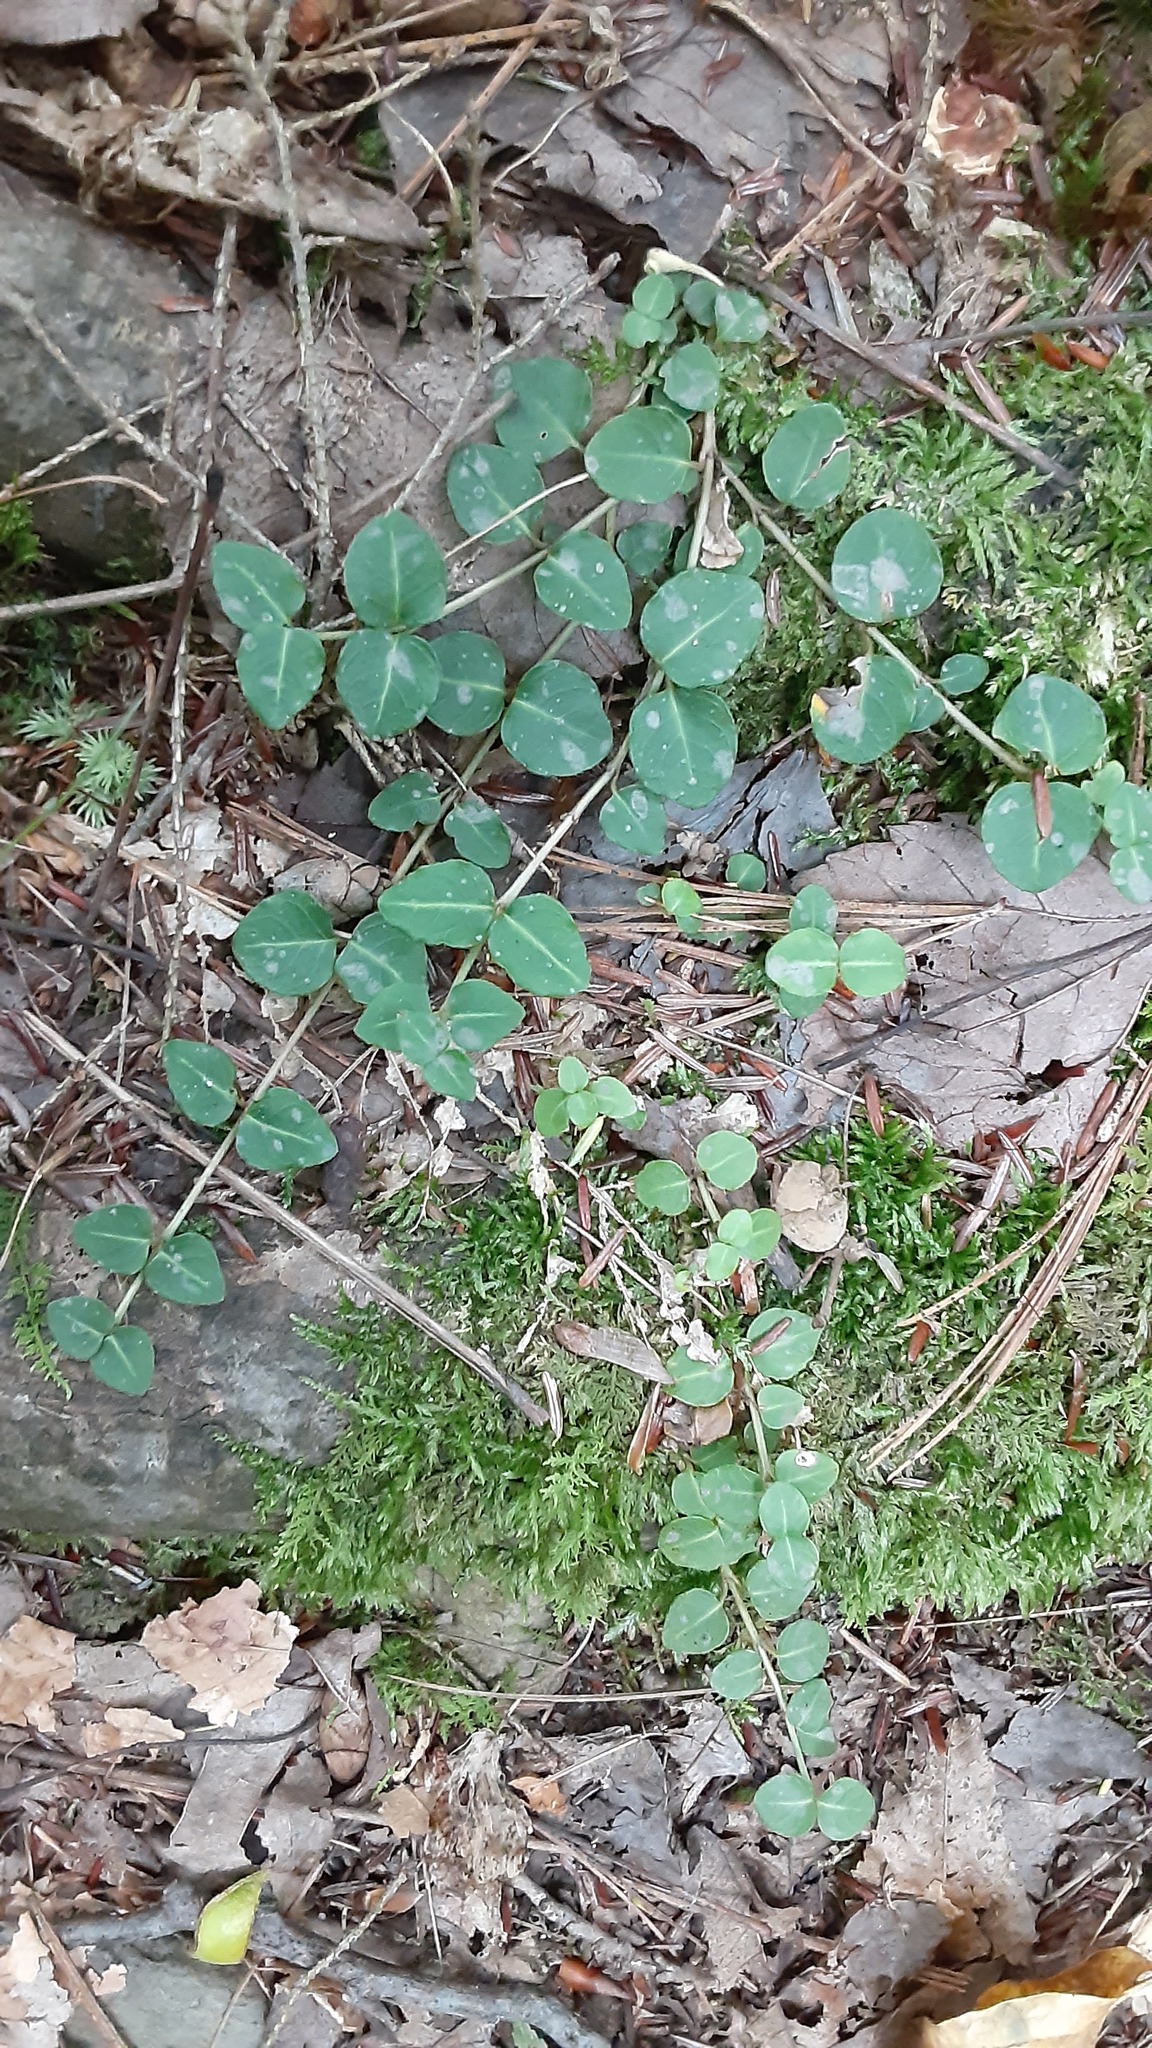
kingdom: Plantae
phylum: Tracheophyta
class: Magnoliopsida
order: Gentianales
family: Rubiaceae
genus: Mitchella
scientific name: Mitchella repens
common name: Partridge-berry
